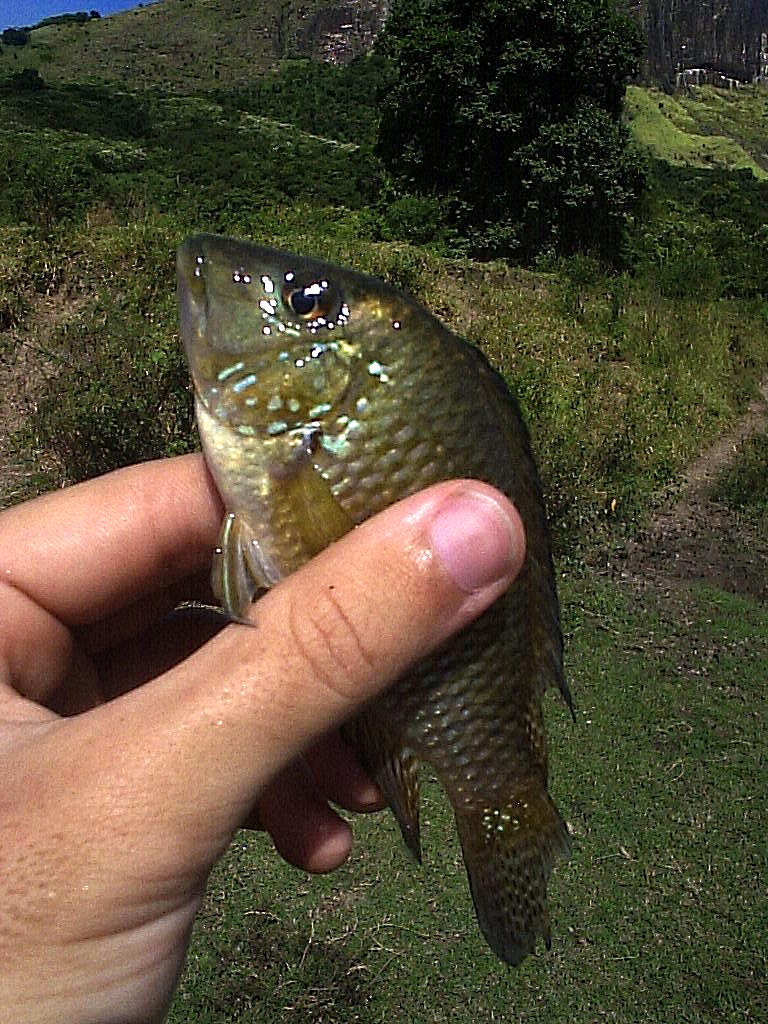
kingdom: Animalia
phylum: Chordata
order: Perciformes
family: Cichlidae
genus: Geophagus
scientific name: Geophagus brasiliensis
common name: Braziliensis
